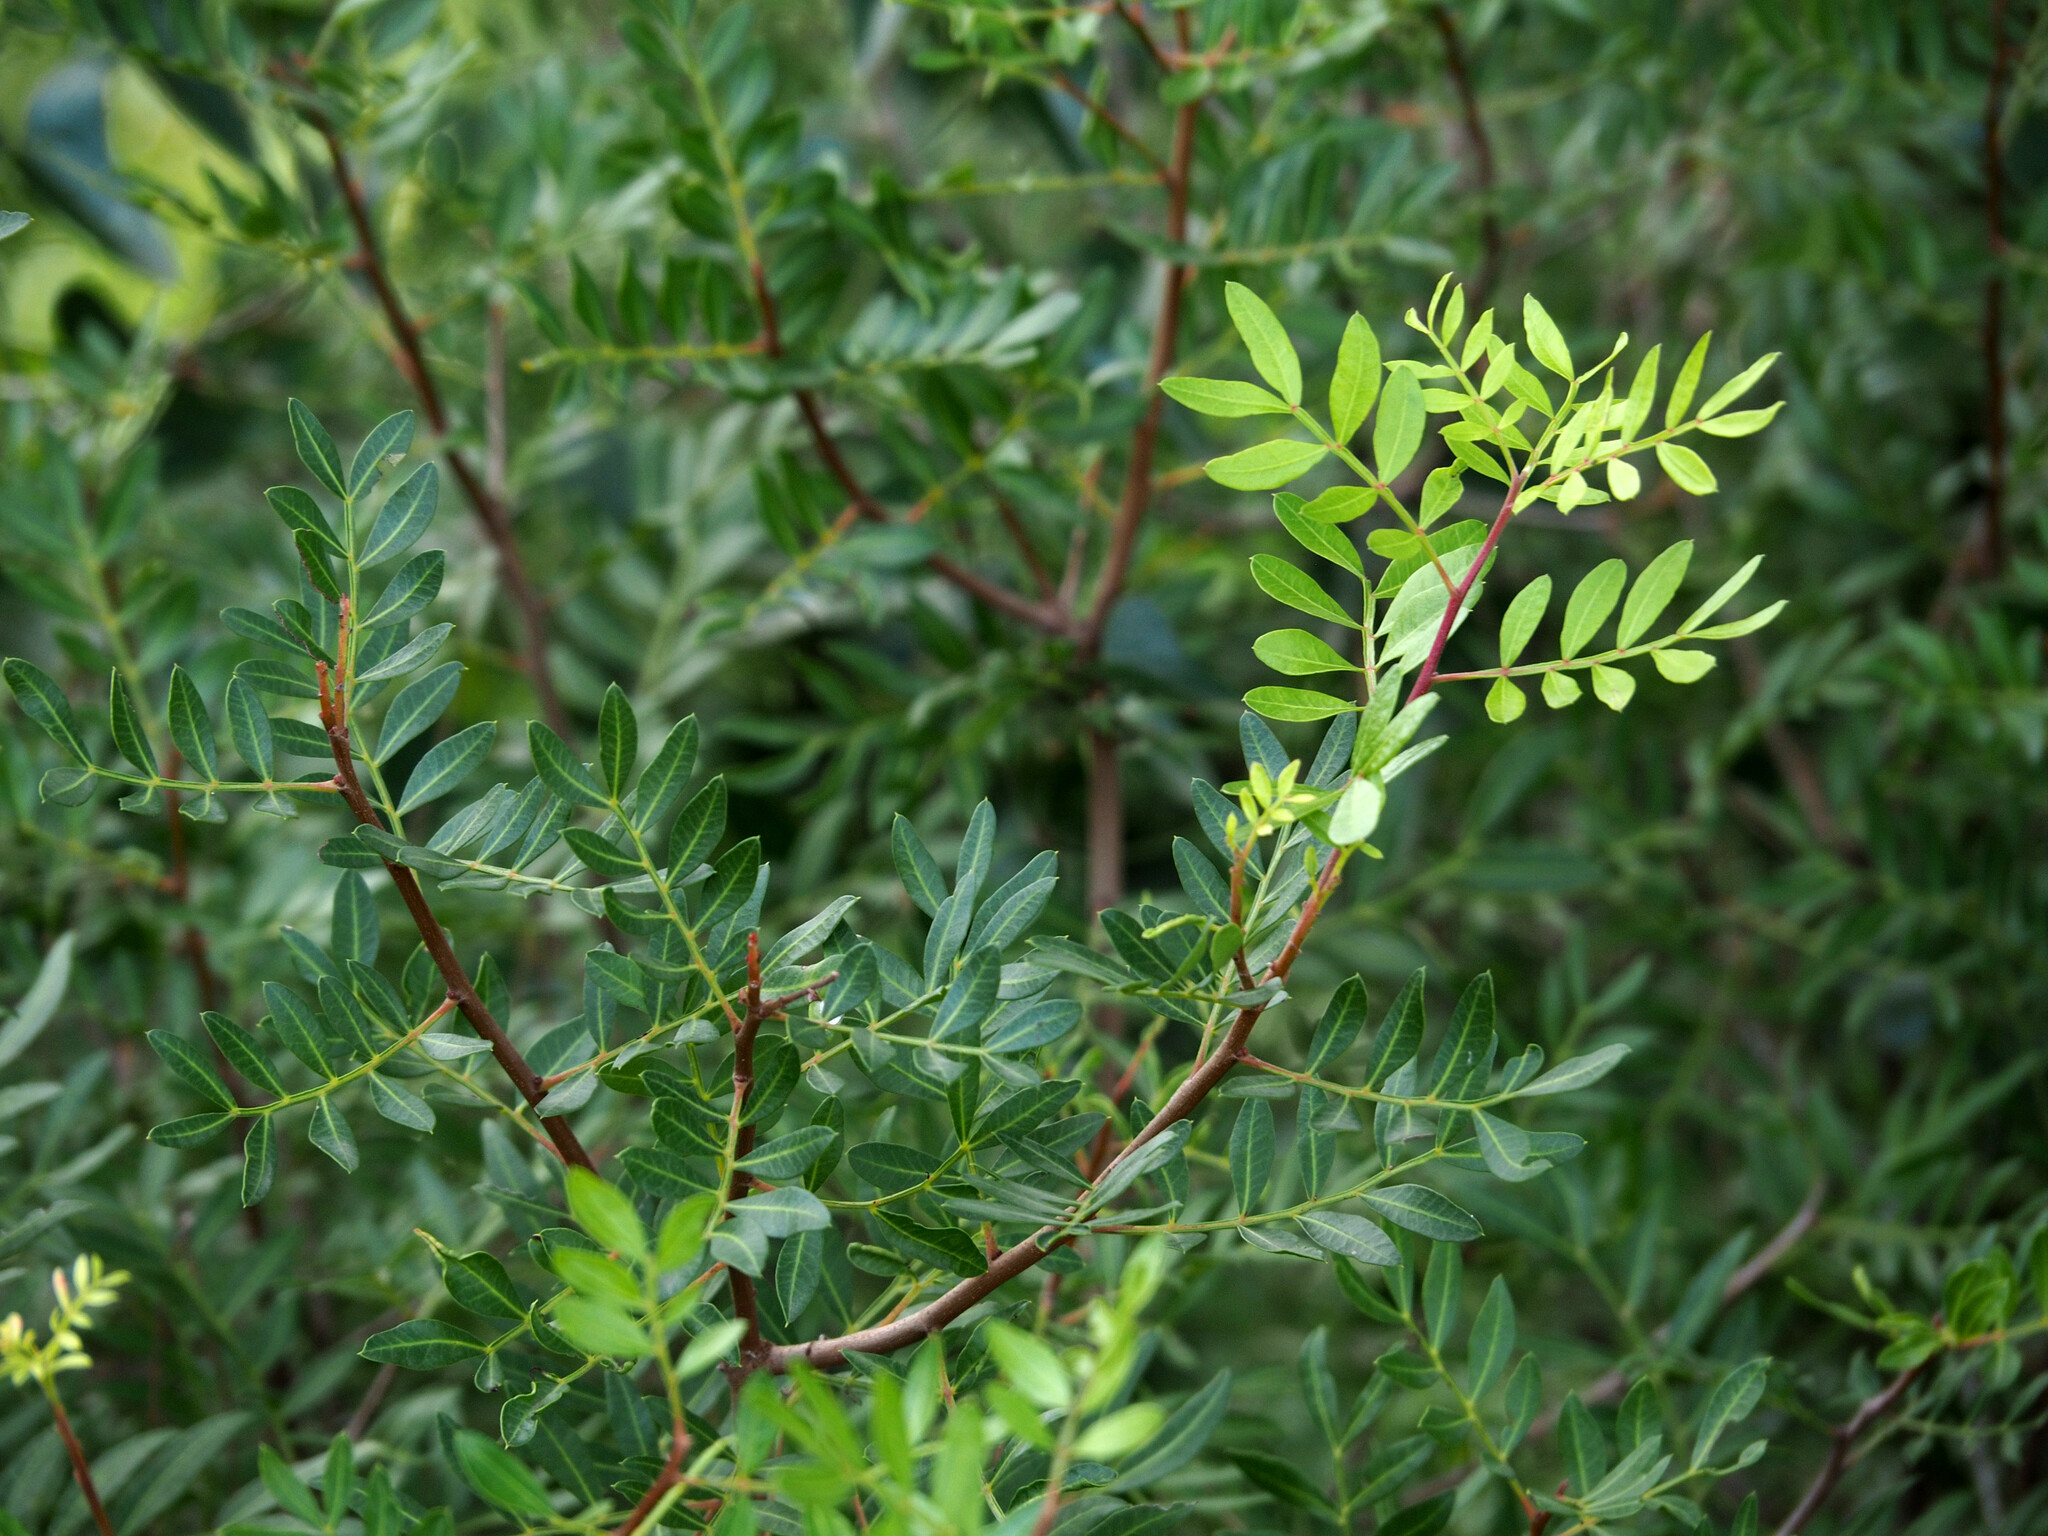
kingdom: Plantae
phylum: Tracheophyta
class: Magnoliopsida
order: Sapindales
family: Anacardiaceae
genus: Pistacia
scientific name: Pistacia lentiscus
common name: Lentisk
